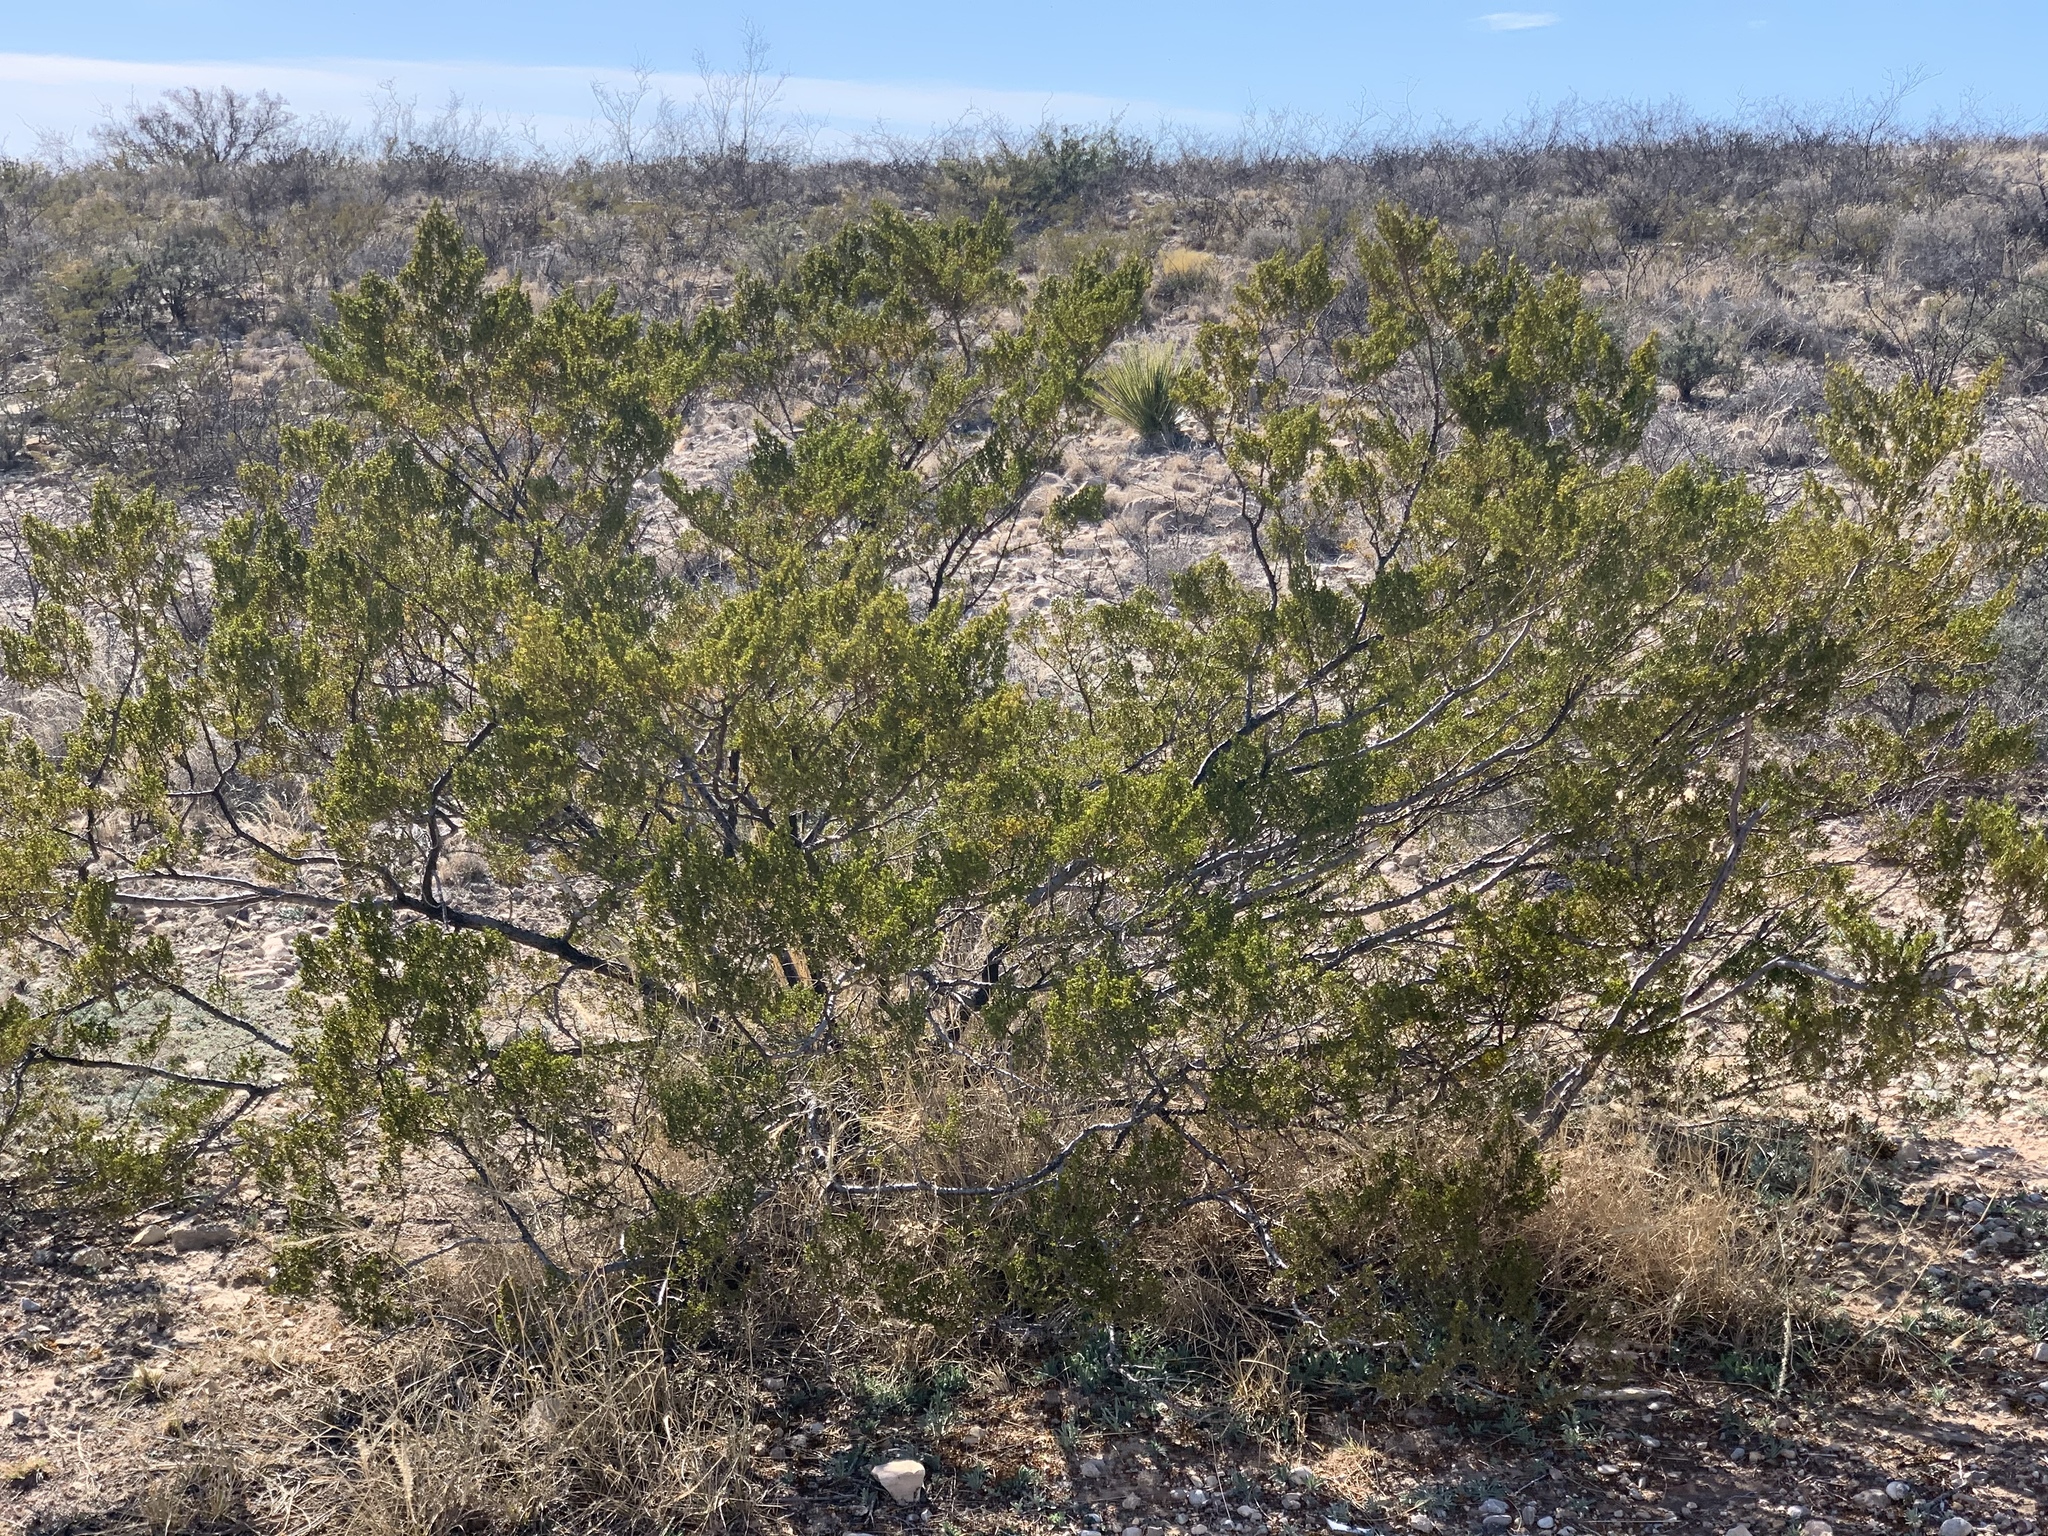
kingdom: Plantae
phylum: Tracheophyta
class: Magnoliopsida
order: Zygophyllales
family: Zygophyllaceae
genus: Larrea
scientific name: Larrea tridentata
